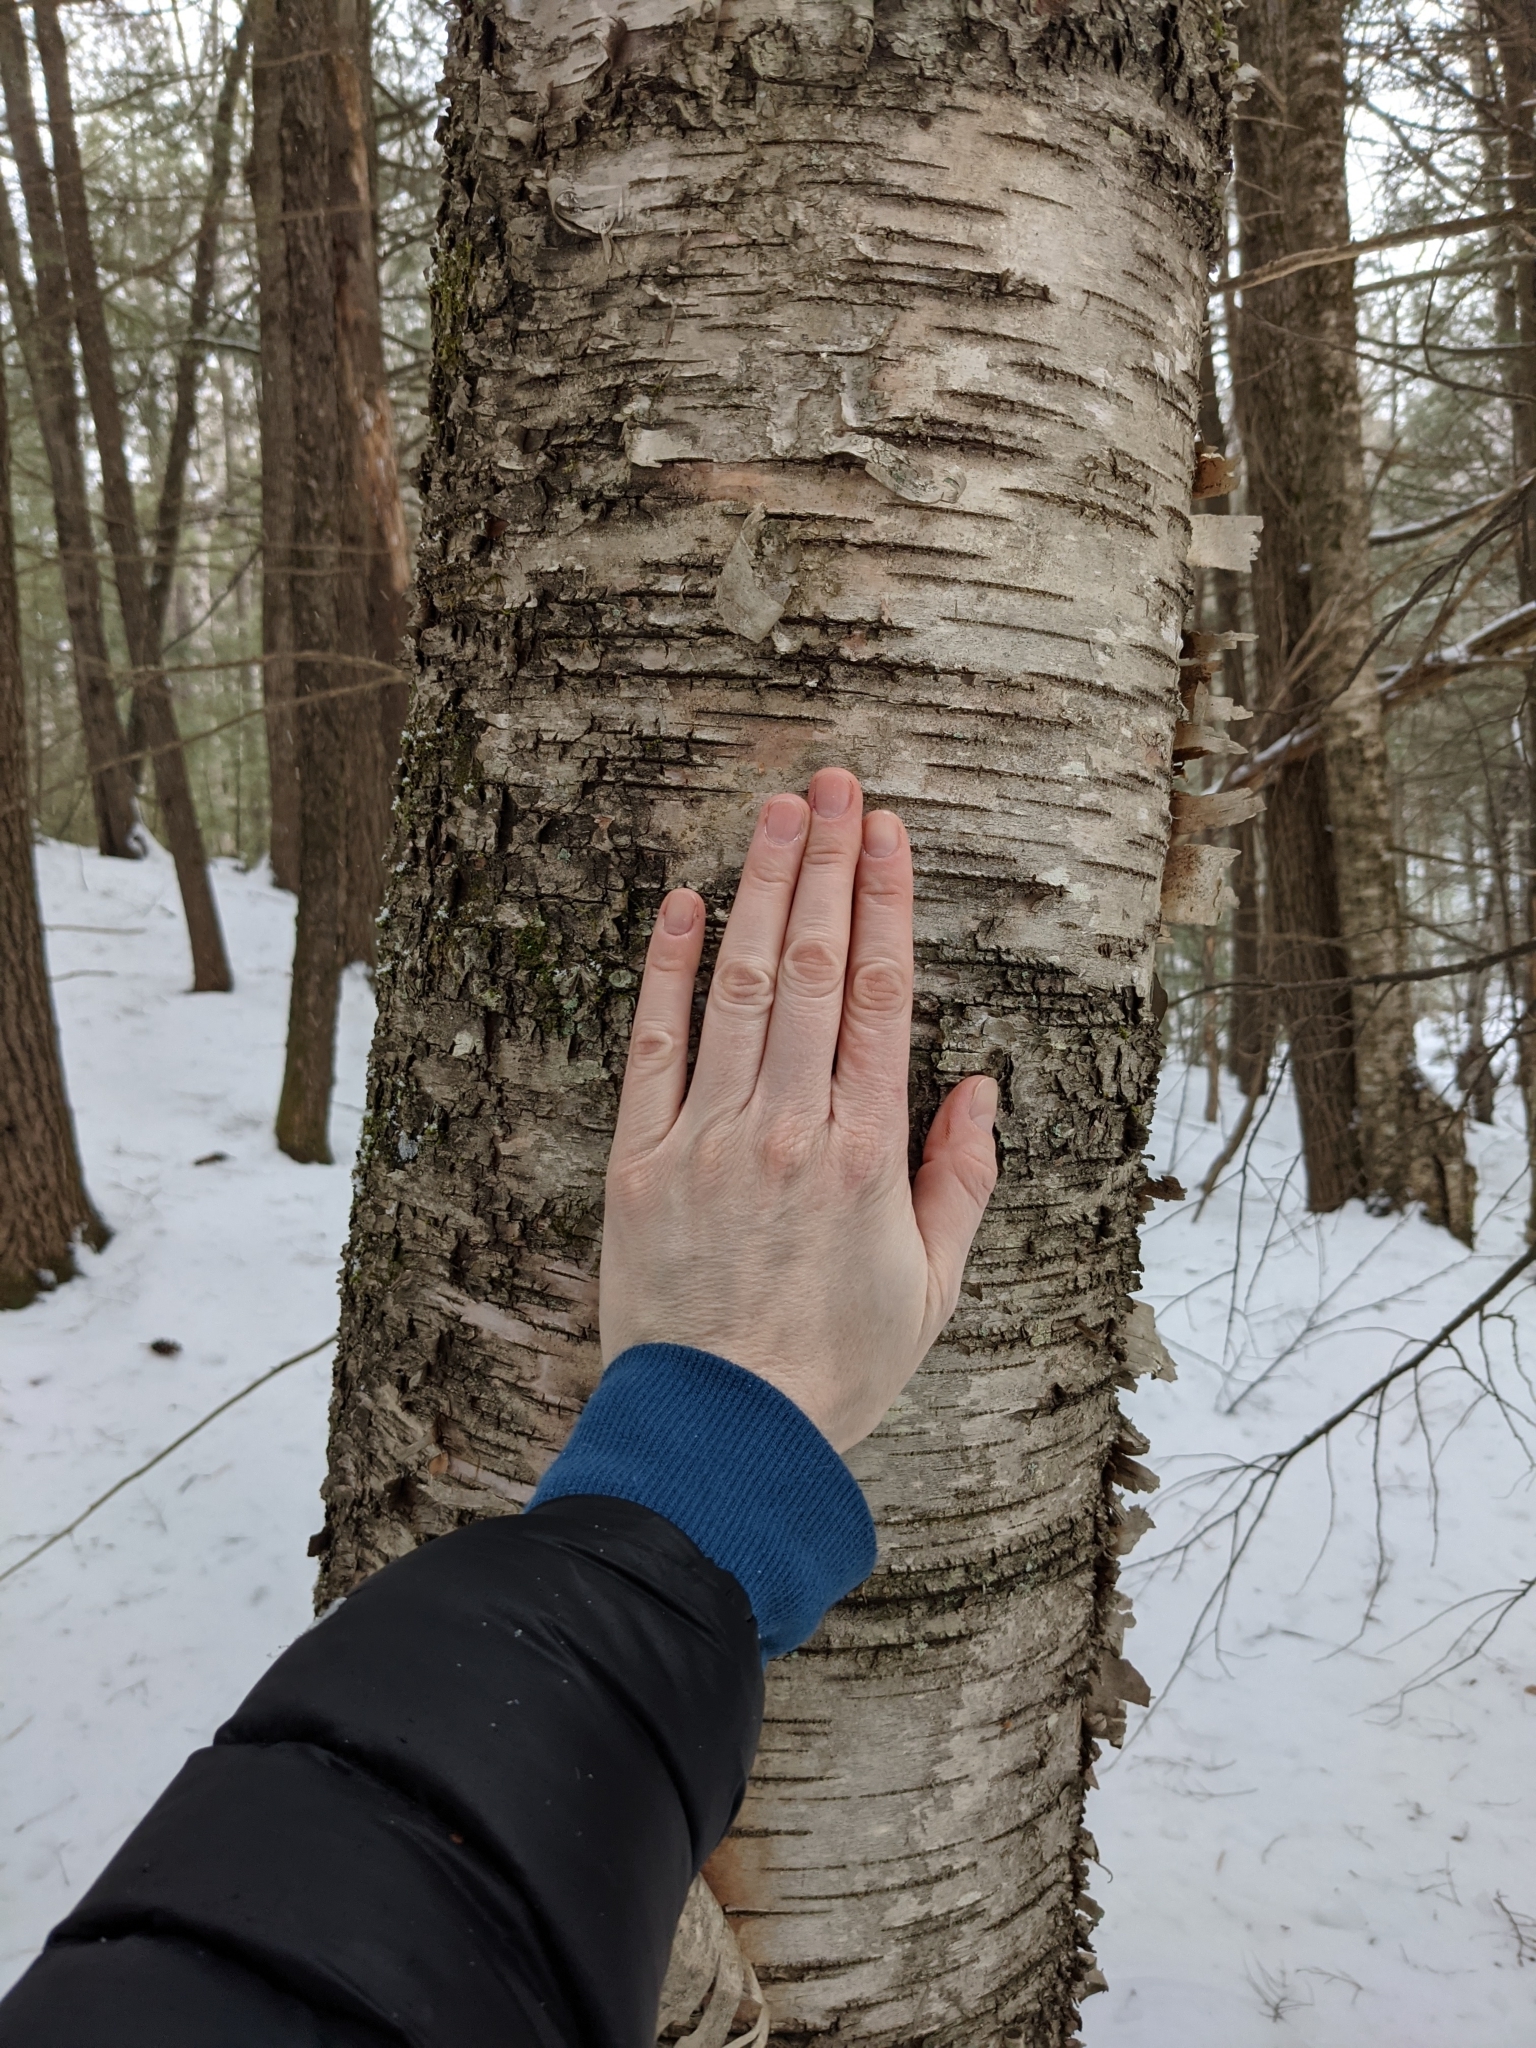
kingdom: Plantae
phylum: Tracheophyta
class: Magnoliopsida
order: Fagales
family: Betulaceae
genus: Betula
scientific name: Betula alleghaniensis
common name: Yellow birch
